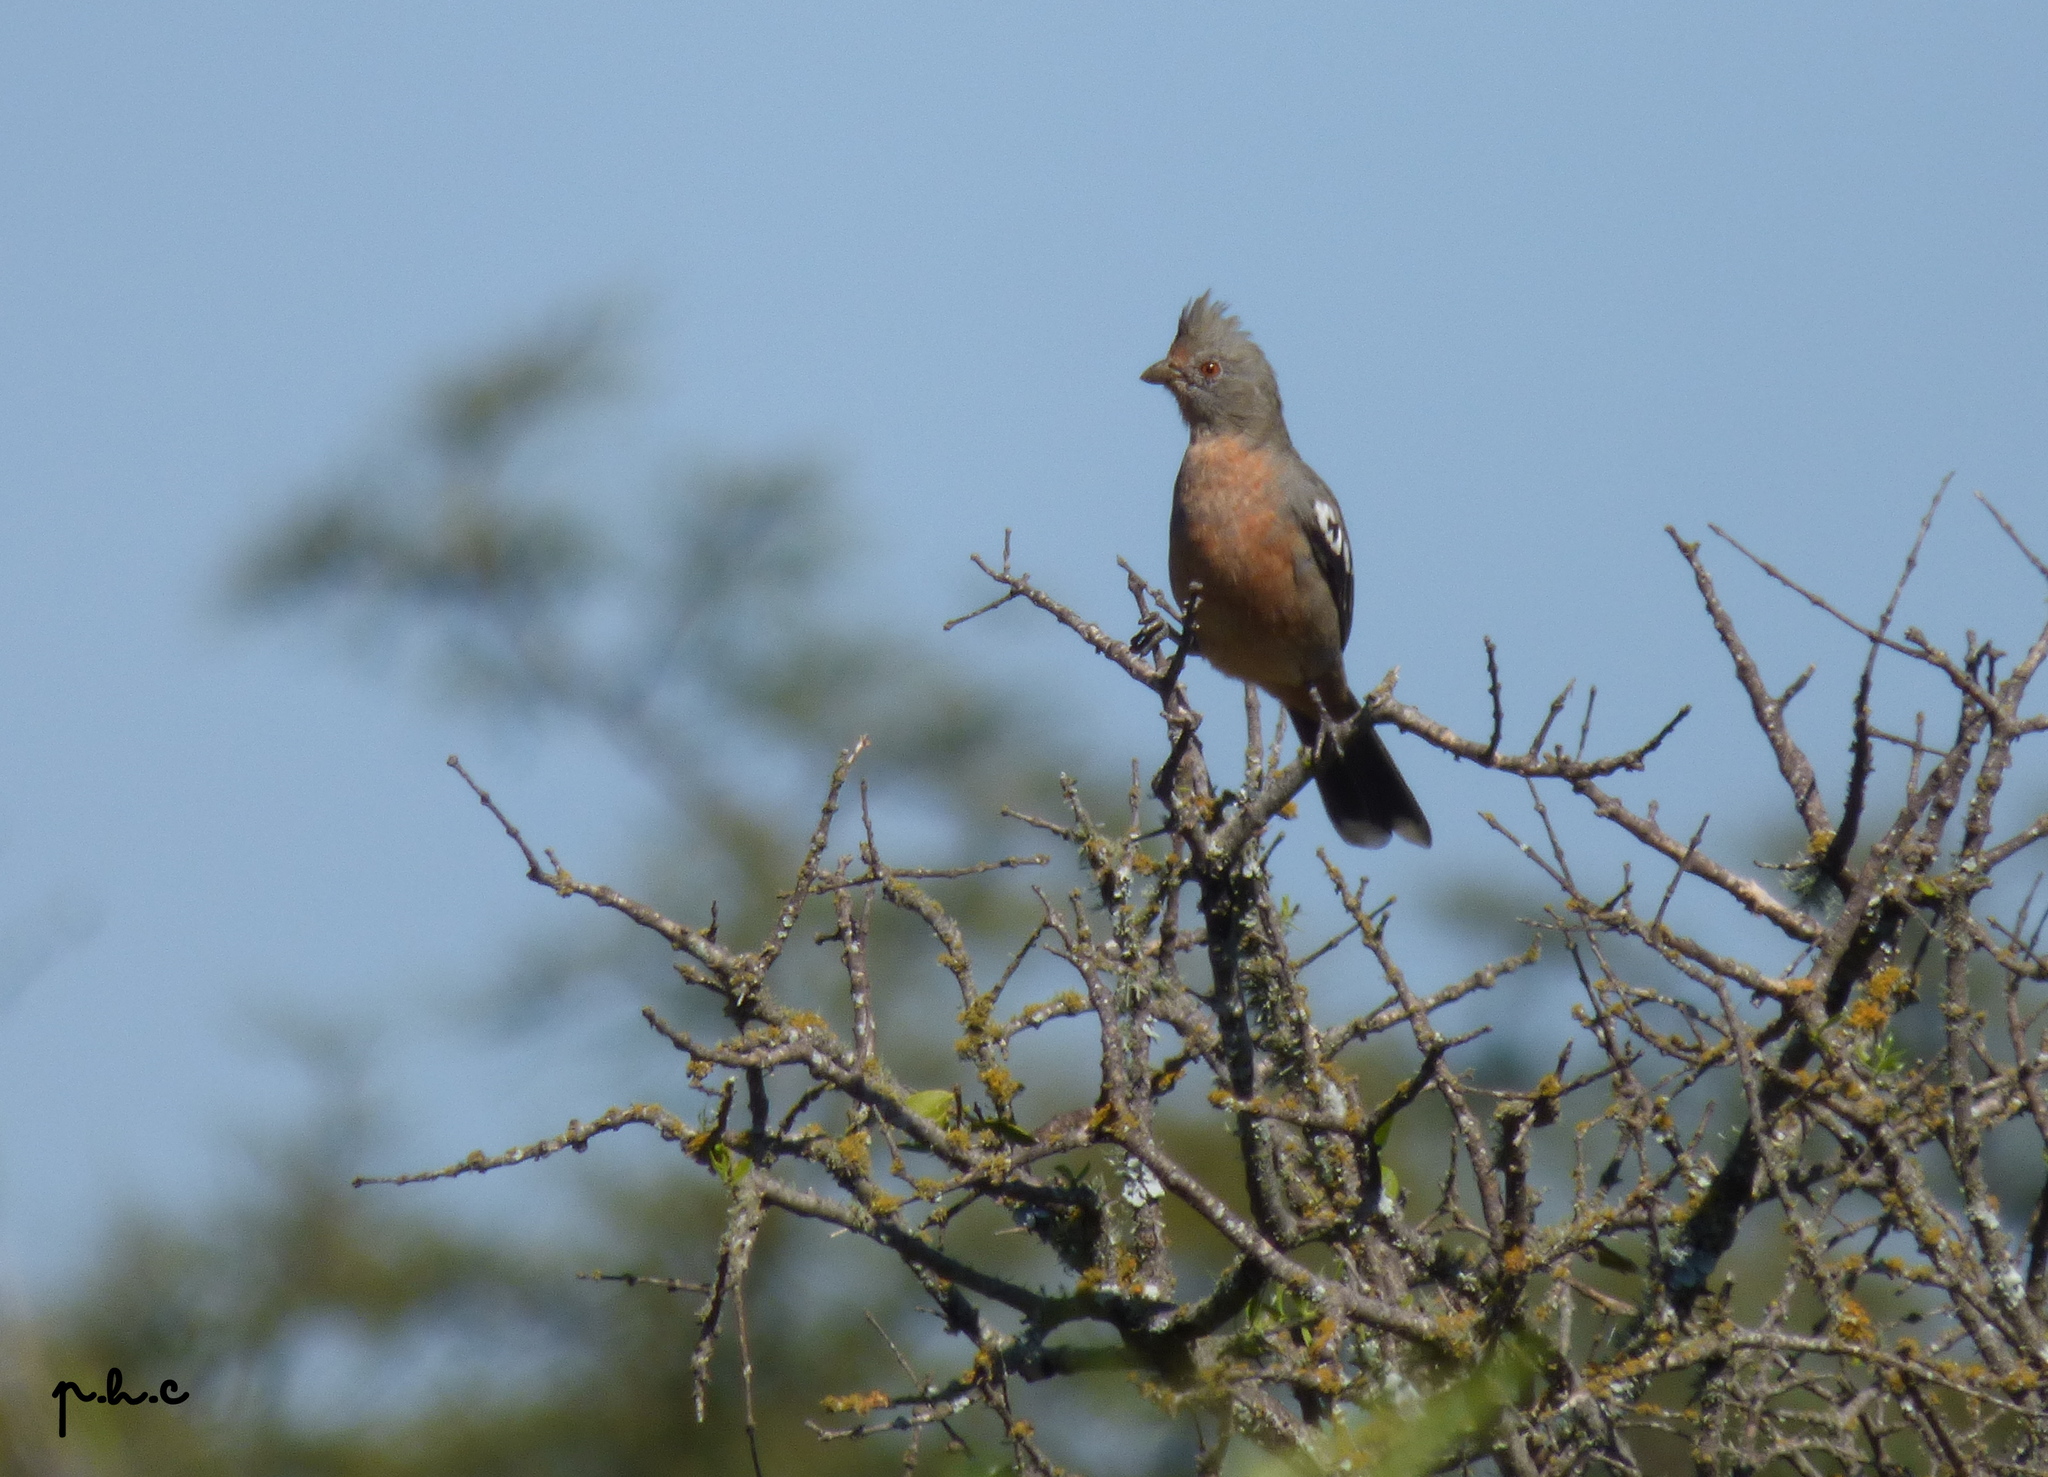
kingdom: Animalia
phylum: Chordata
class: Aves
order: Passeriformes
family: Cotingidae
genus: Phytotoma
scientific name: Phytotoma rutila
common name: White-tipped plantcutter
